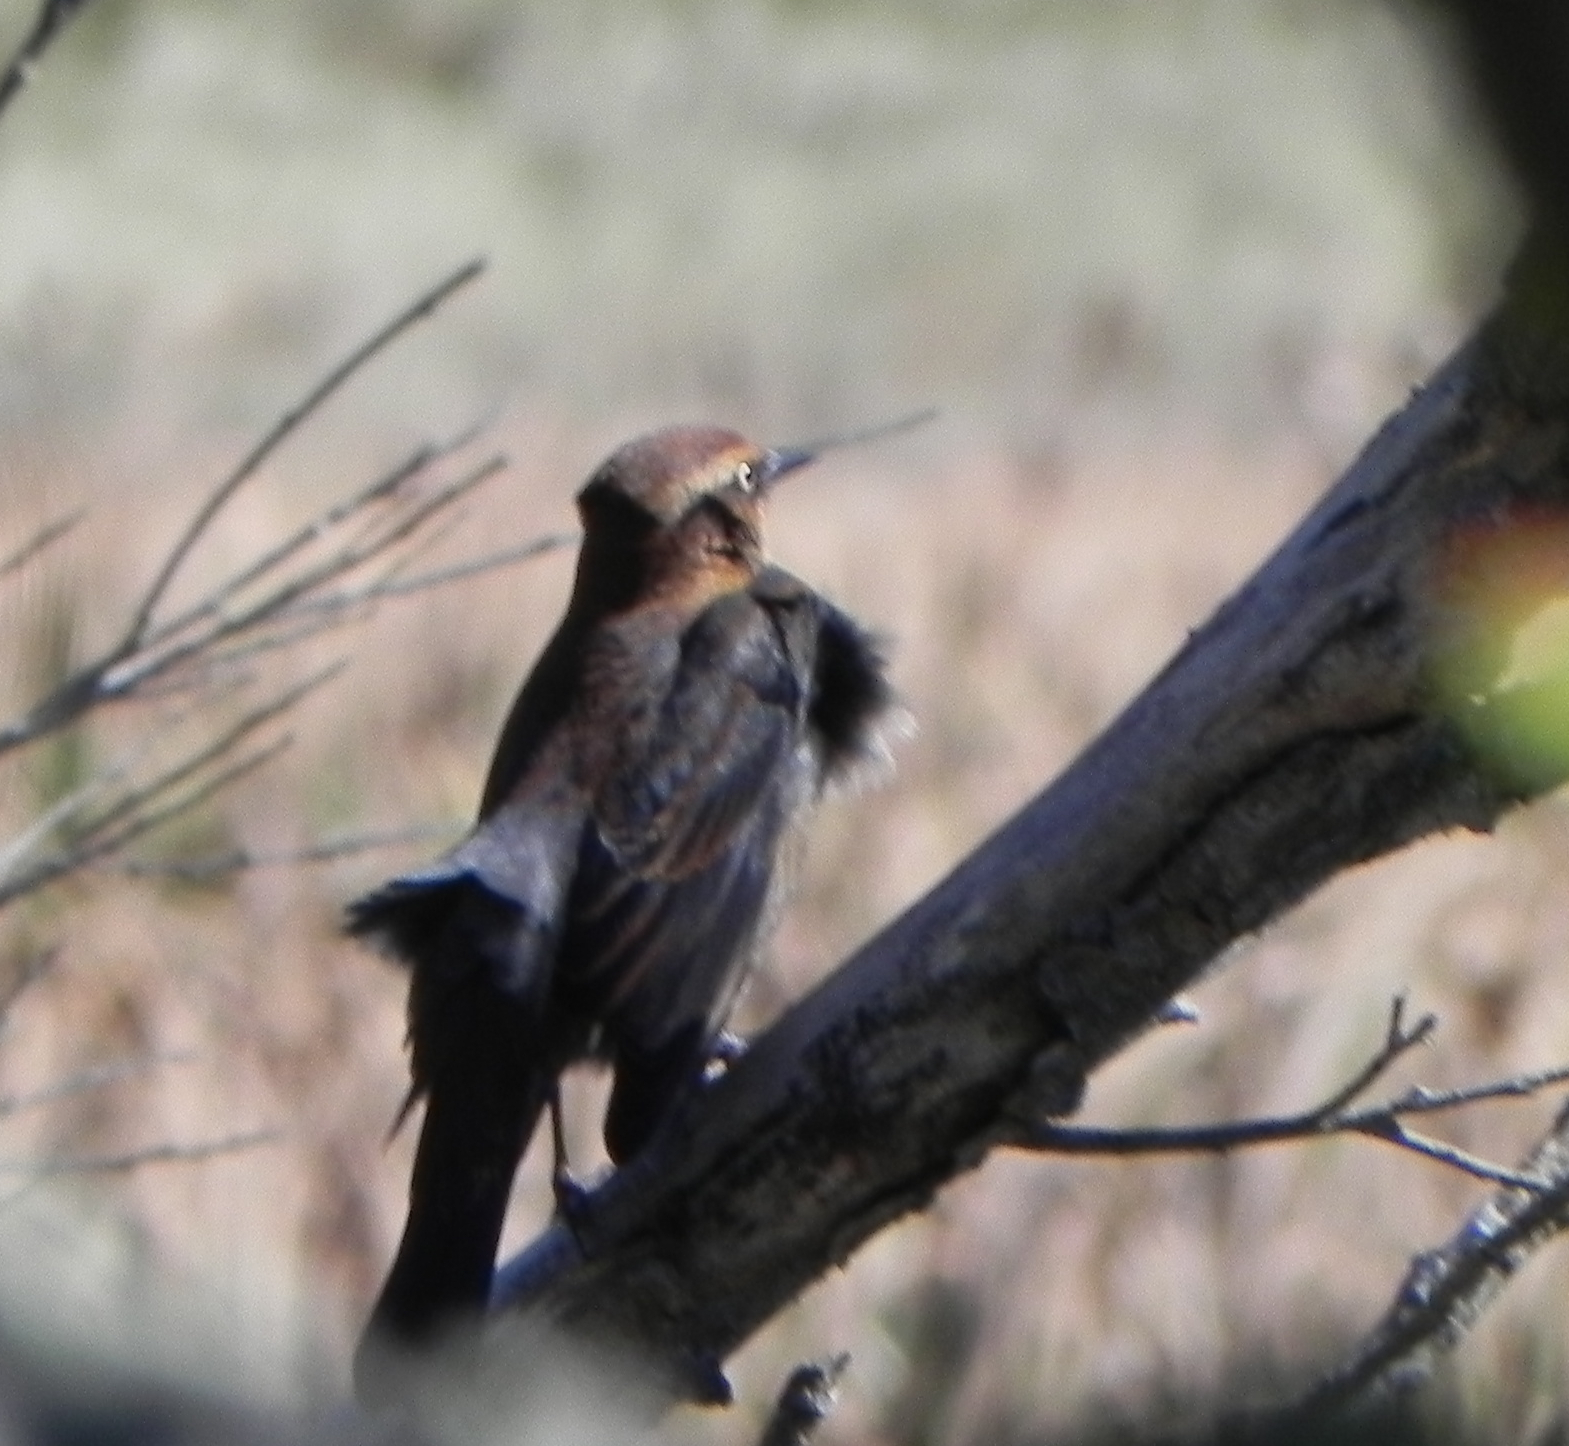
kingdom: Animalia
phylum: Chordata
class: Aves
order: Passeriformes
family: Icteridae
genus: Euphagus
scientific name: Euphagus carolinus
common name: Rusty blackbird
